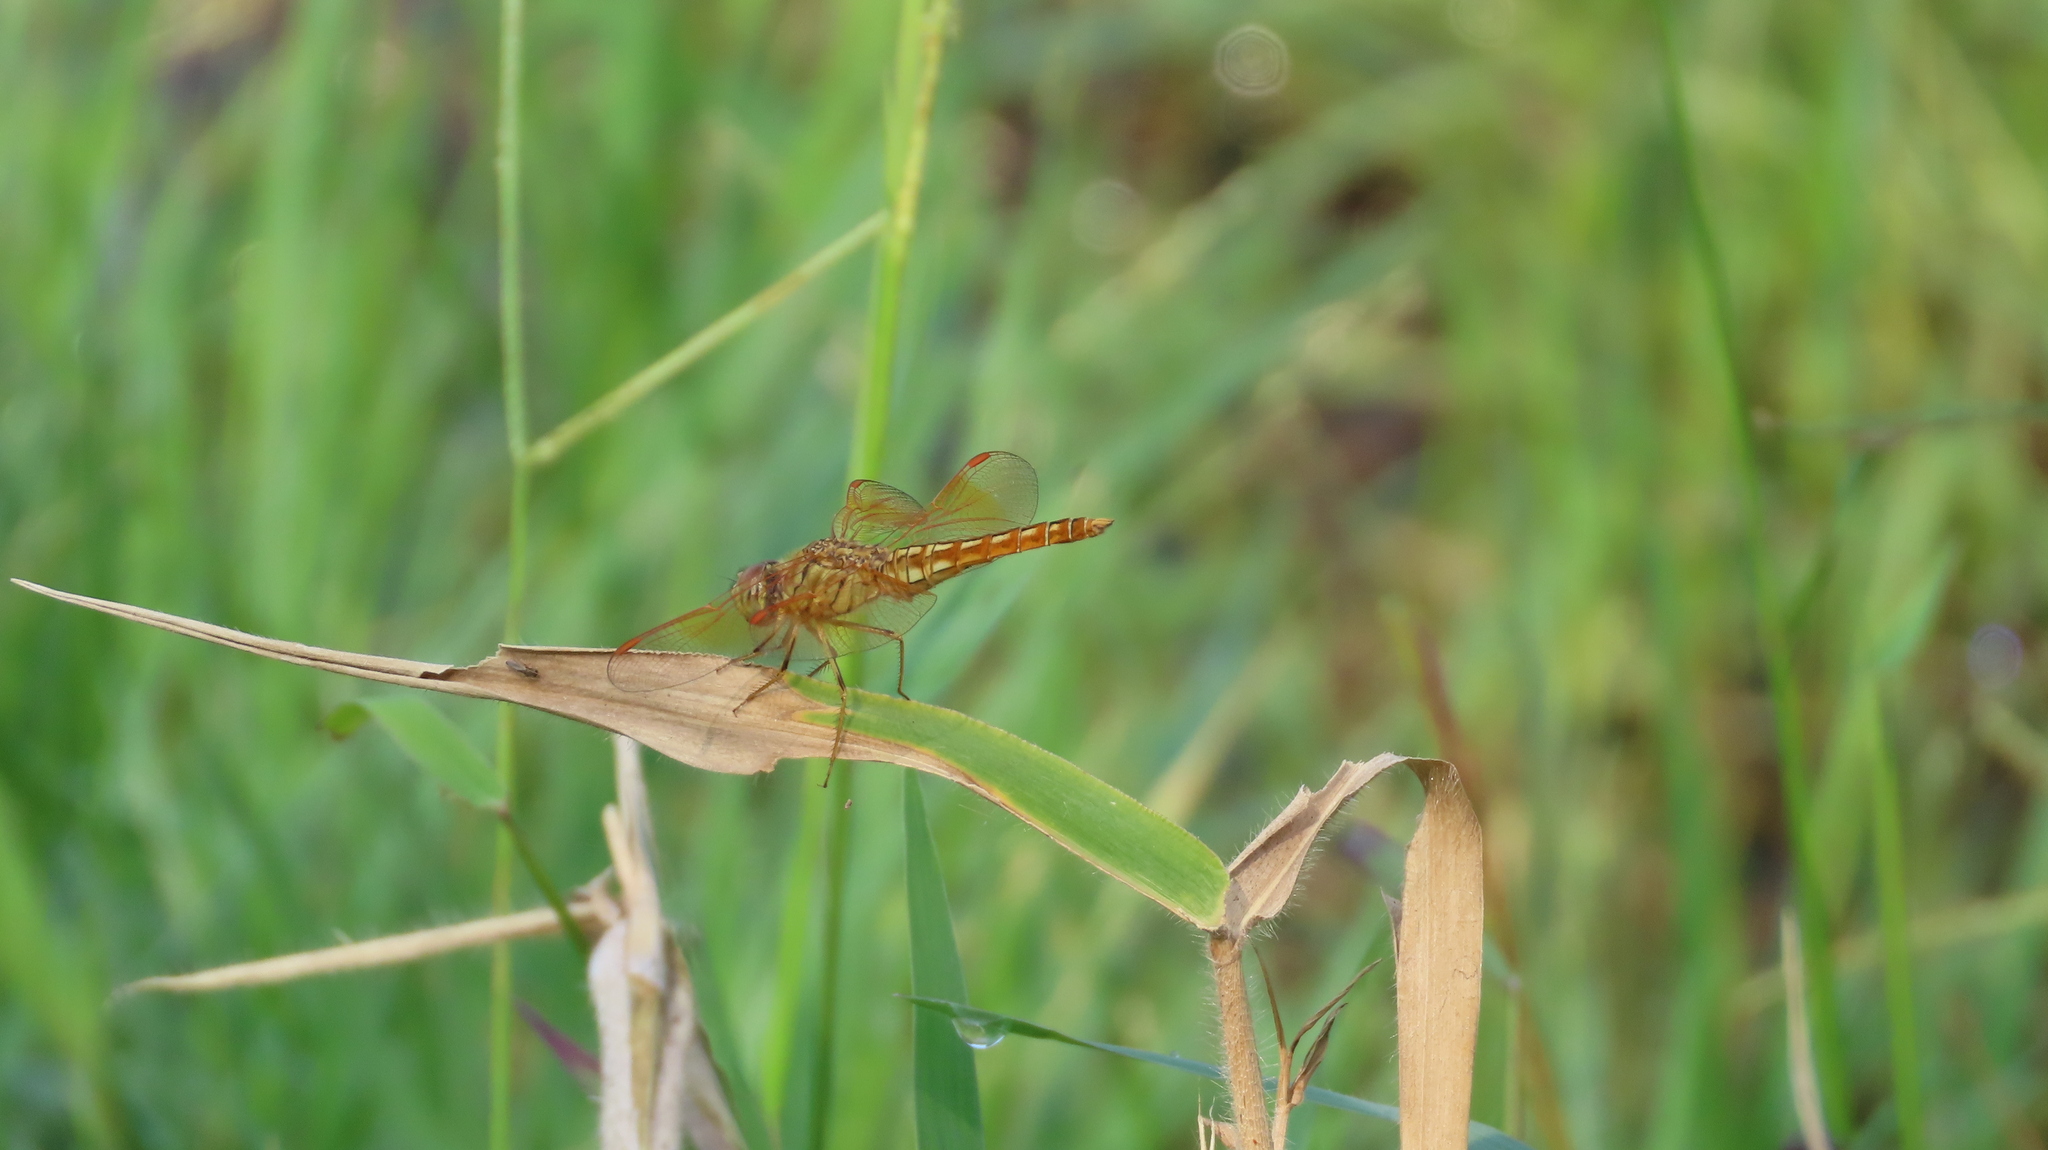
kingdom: Animalia
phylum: Arthropoda
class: Insecta
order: Odonata
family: Libellulidae
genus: Brachythemis
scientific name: Brachythemis contaminata
